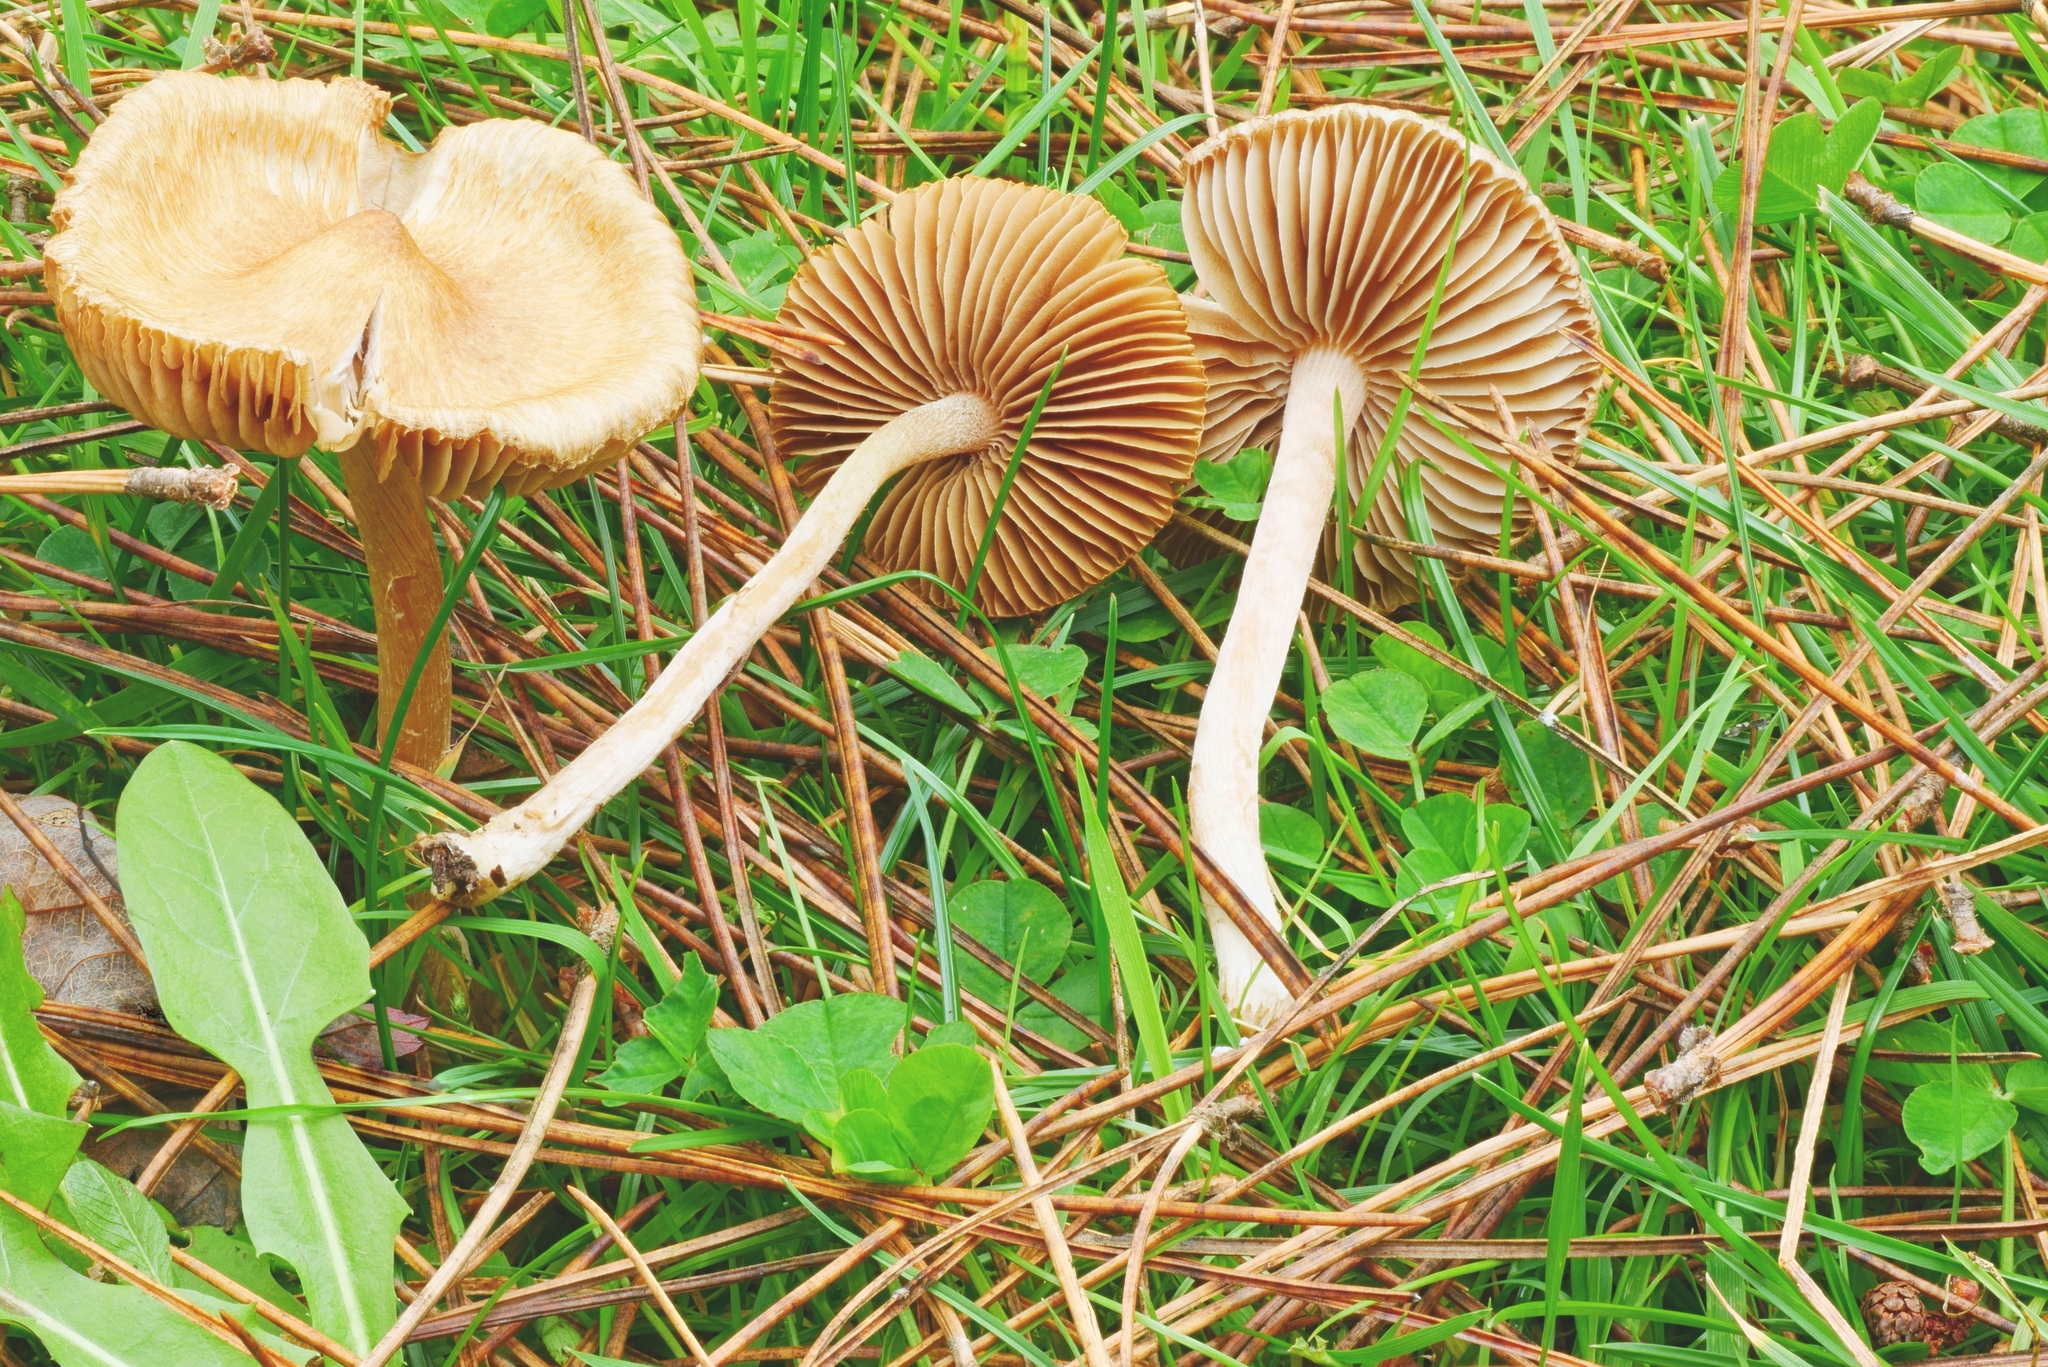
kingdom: Fungi
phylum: Basidiomycota
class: Agaricomycetes
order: Agaricales
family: Inocybaceae
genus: Inocybe
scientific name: Inocybe nitidiuscula
